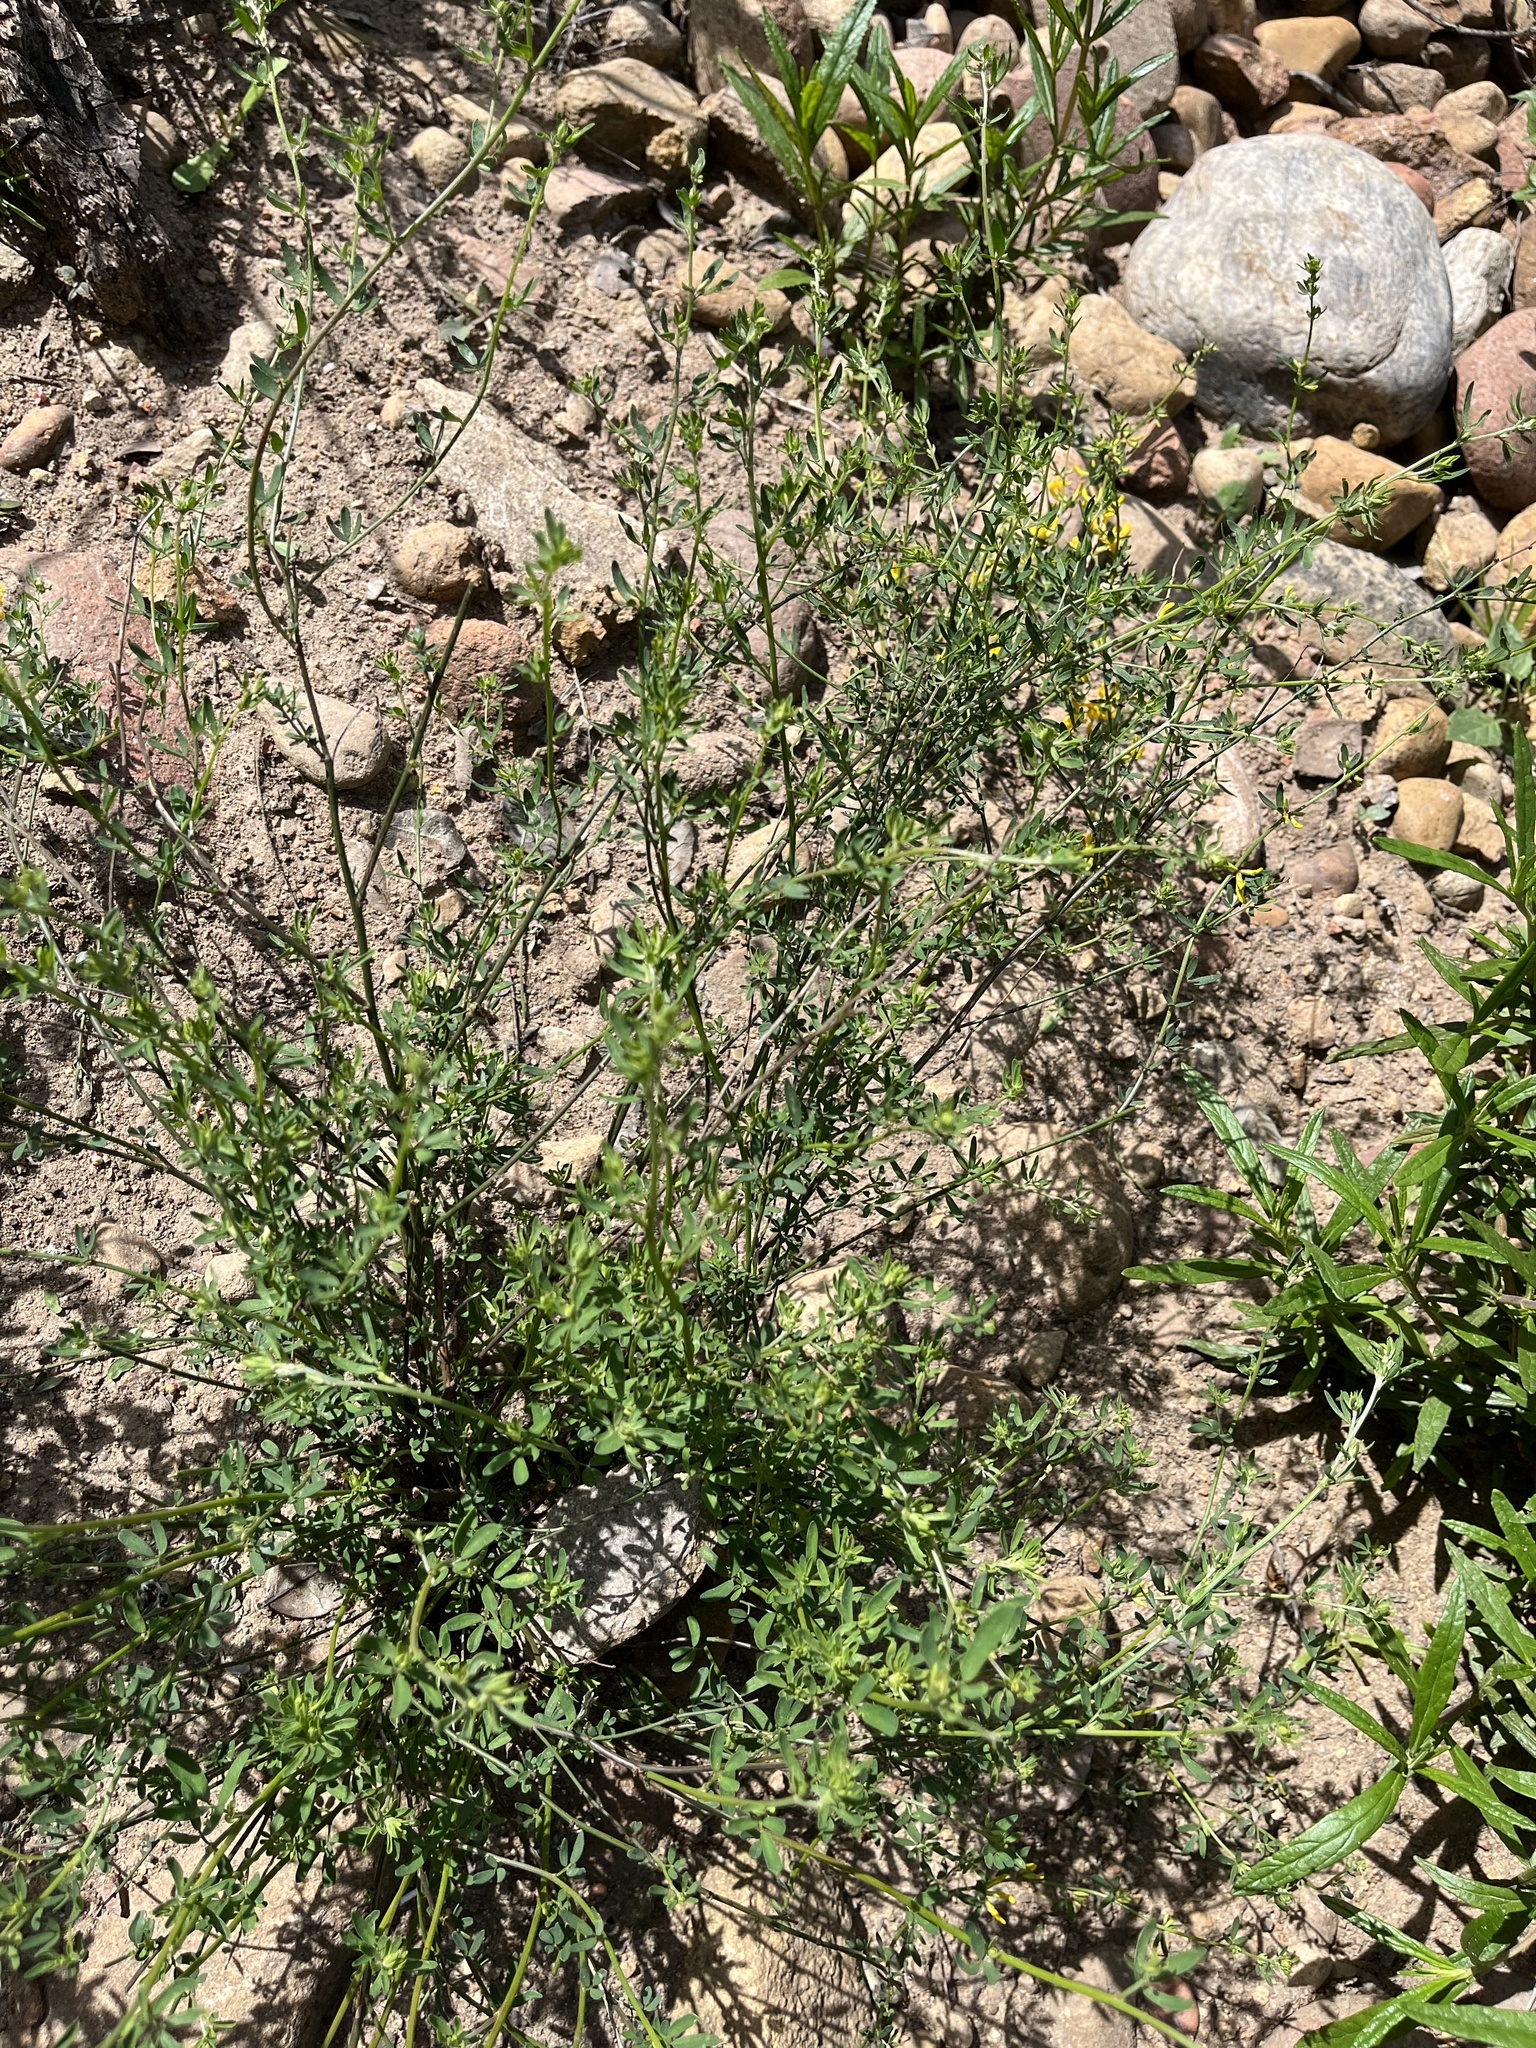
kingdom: Plantae
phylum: Tracheophyta
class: Magnoliopsida
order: Fabales
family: Fabaceae
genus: Acmispon
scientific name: Acmispon glaber
